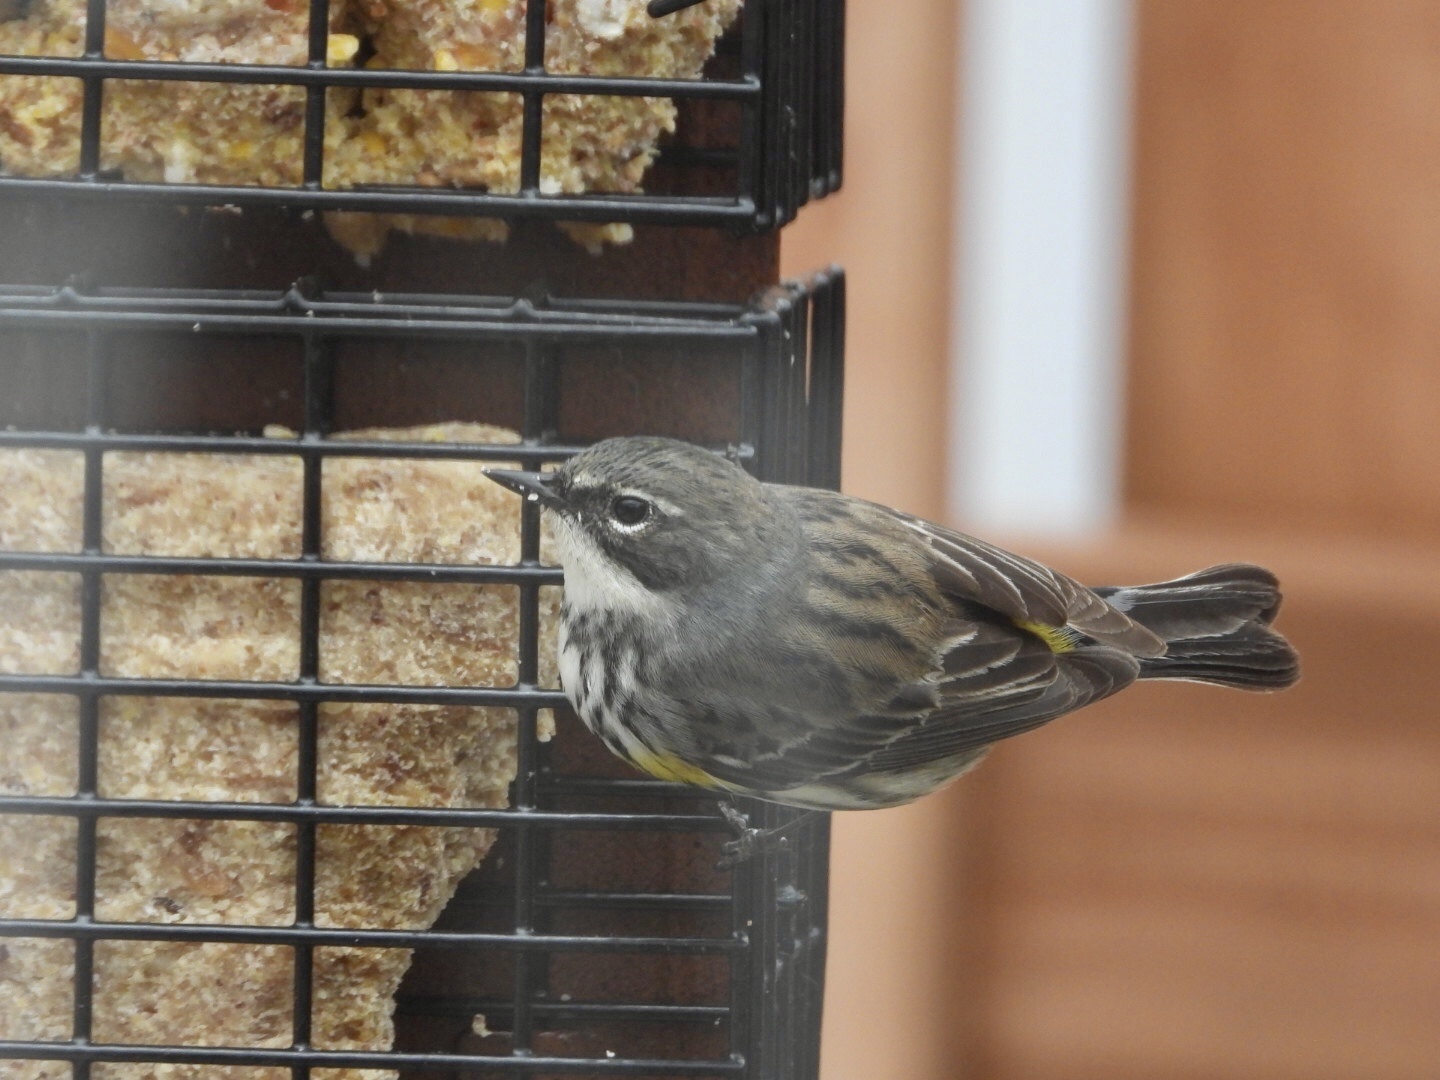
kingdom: Animalia
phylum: Chordata
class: Aves
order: Passeriformes
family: Parulidae
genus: Setophaga
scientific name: Setophaga coronata
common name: Myrtle warbler
